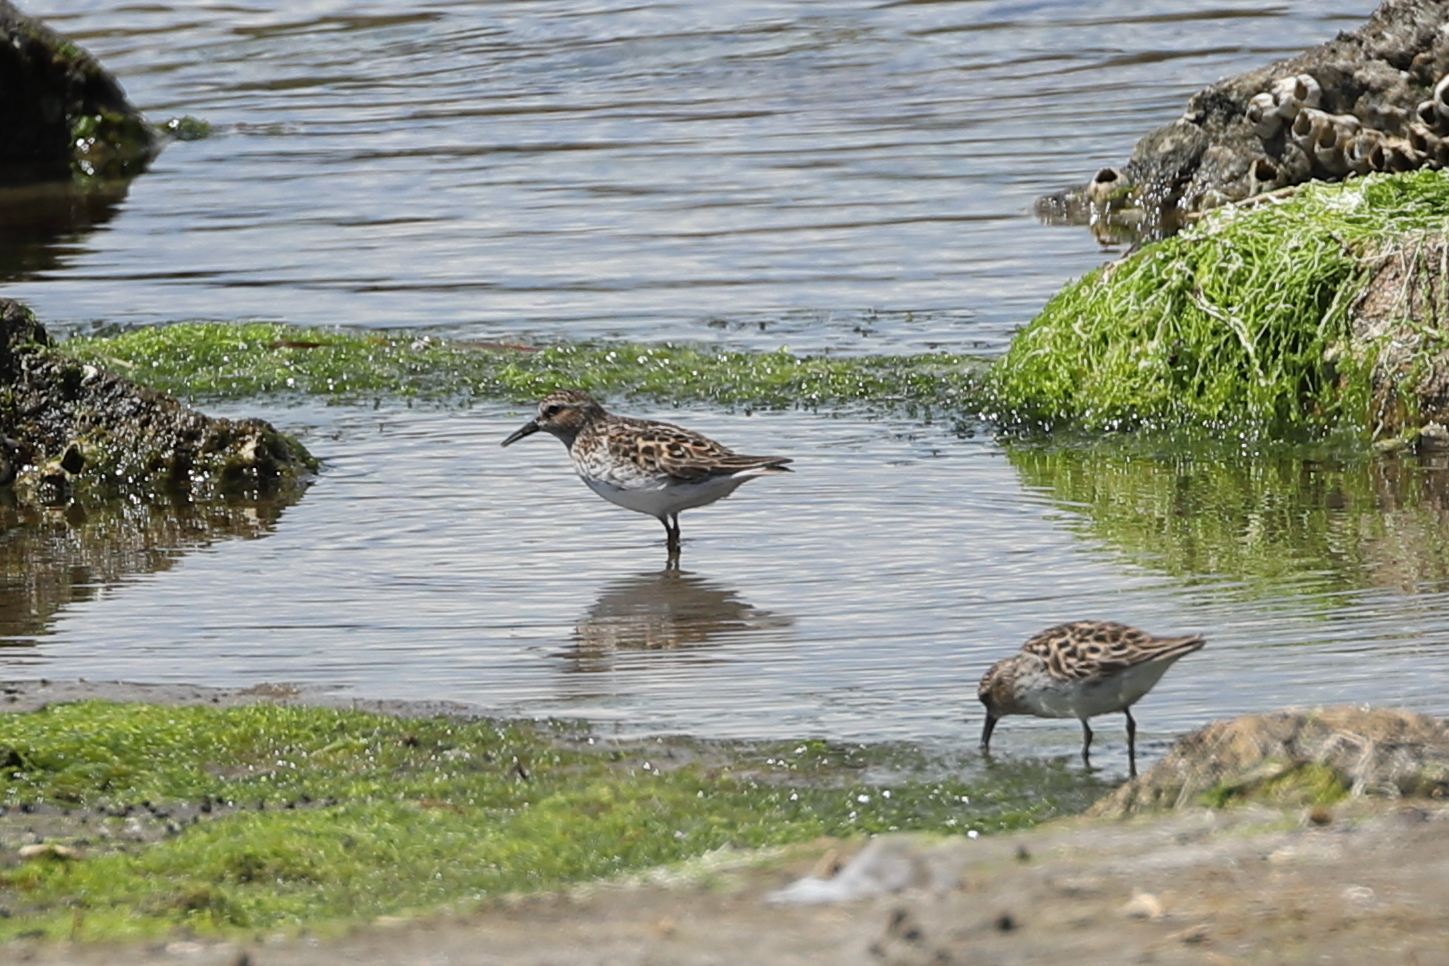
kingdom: Animalia
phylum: Chordata
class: Aves
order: Charadriiformes
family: Scolopacidae
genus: Calidris
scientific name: Calidris minutilla
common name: Least sandpiper
